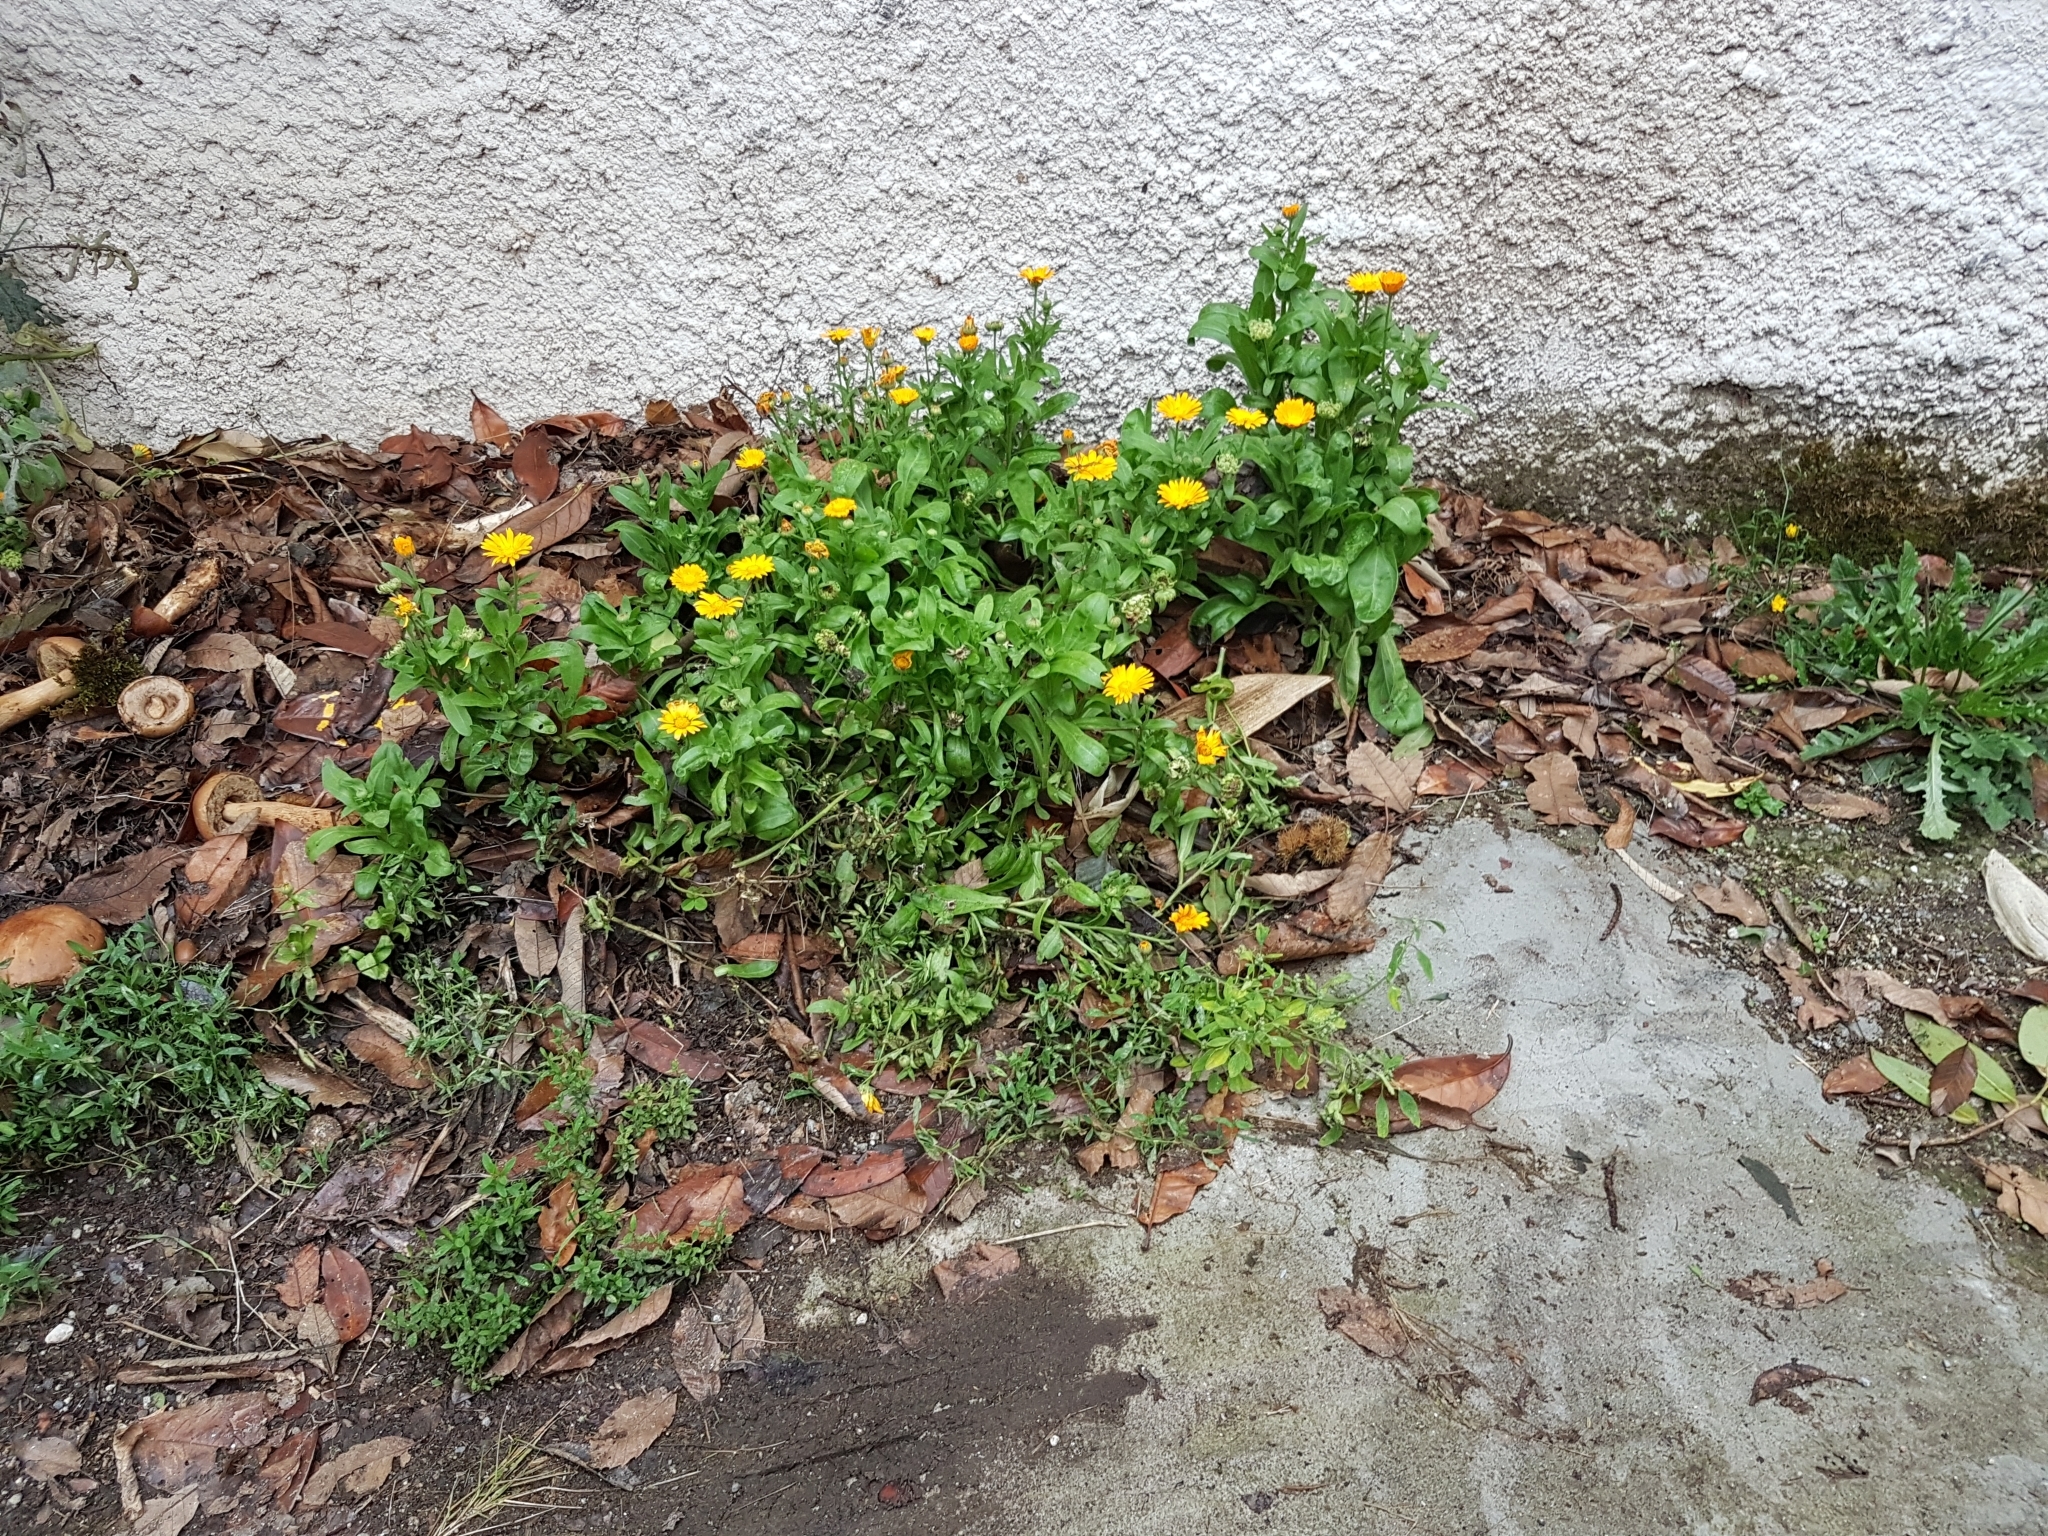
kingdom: Plantae
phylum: Tracheophyta
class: Magnoliopsida
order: Asterales
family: Asteraceae
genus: Calendula
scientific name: Calendula officinalis
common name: Pot marigold
